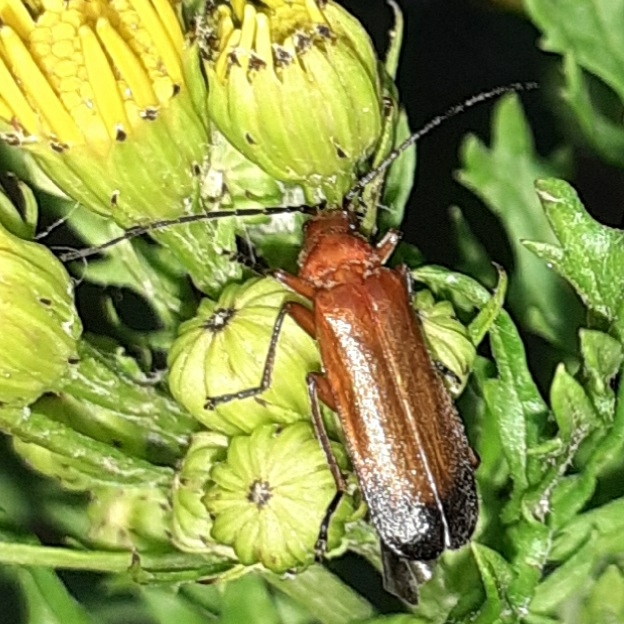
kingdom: Animalia
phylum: Arthropoda
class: Insecta
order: Coleoptera
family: Cantharidae
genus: Rhagonycha
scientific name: Rhagonycha fulva
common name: Common red soldier beetle
